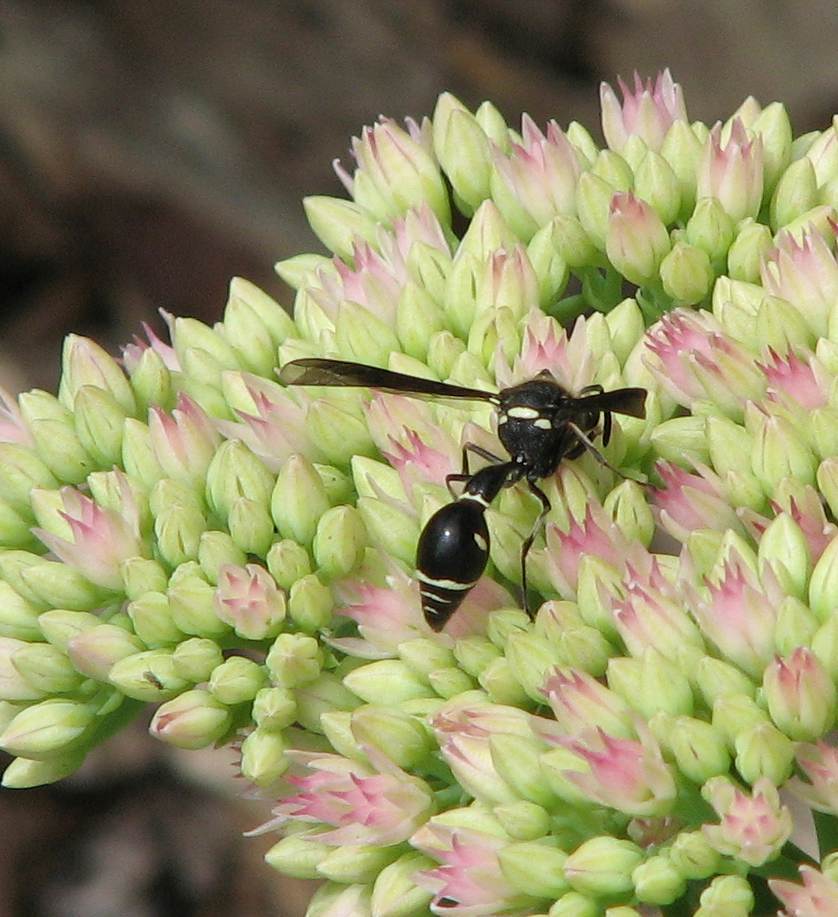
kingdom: Animalia
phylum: Arthropoda
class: Insecta
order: Hymenoptera
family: Vespidae
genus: Eumenes
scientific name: Eumenes fraternus
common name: Fraternal potter wasp
